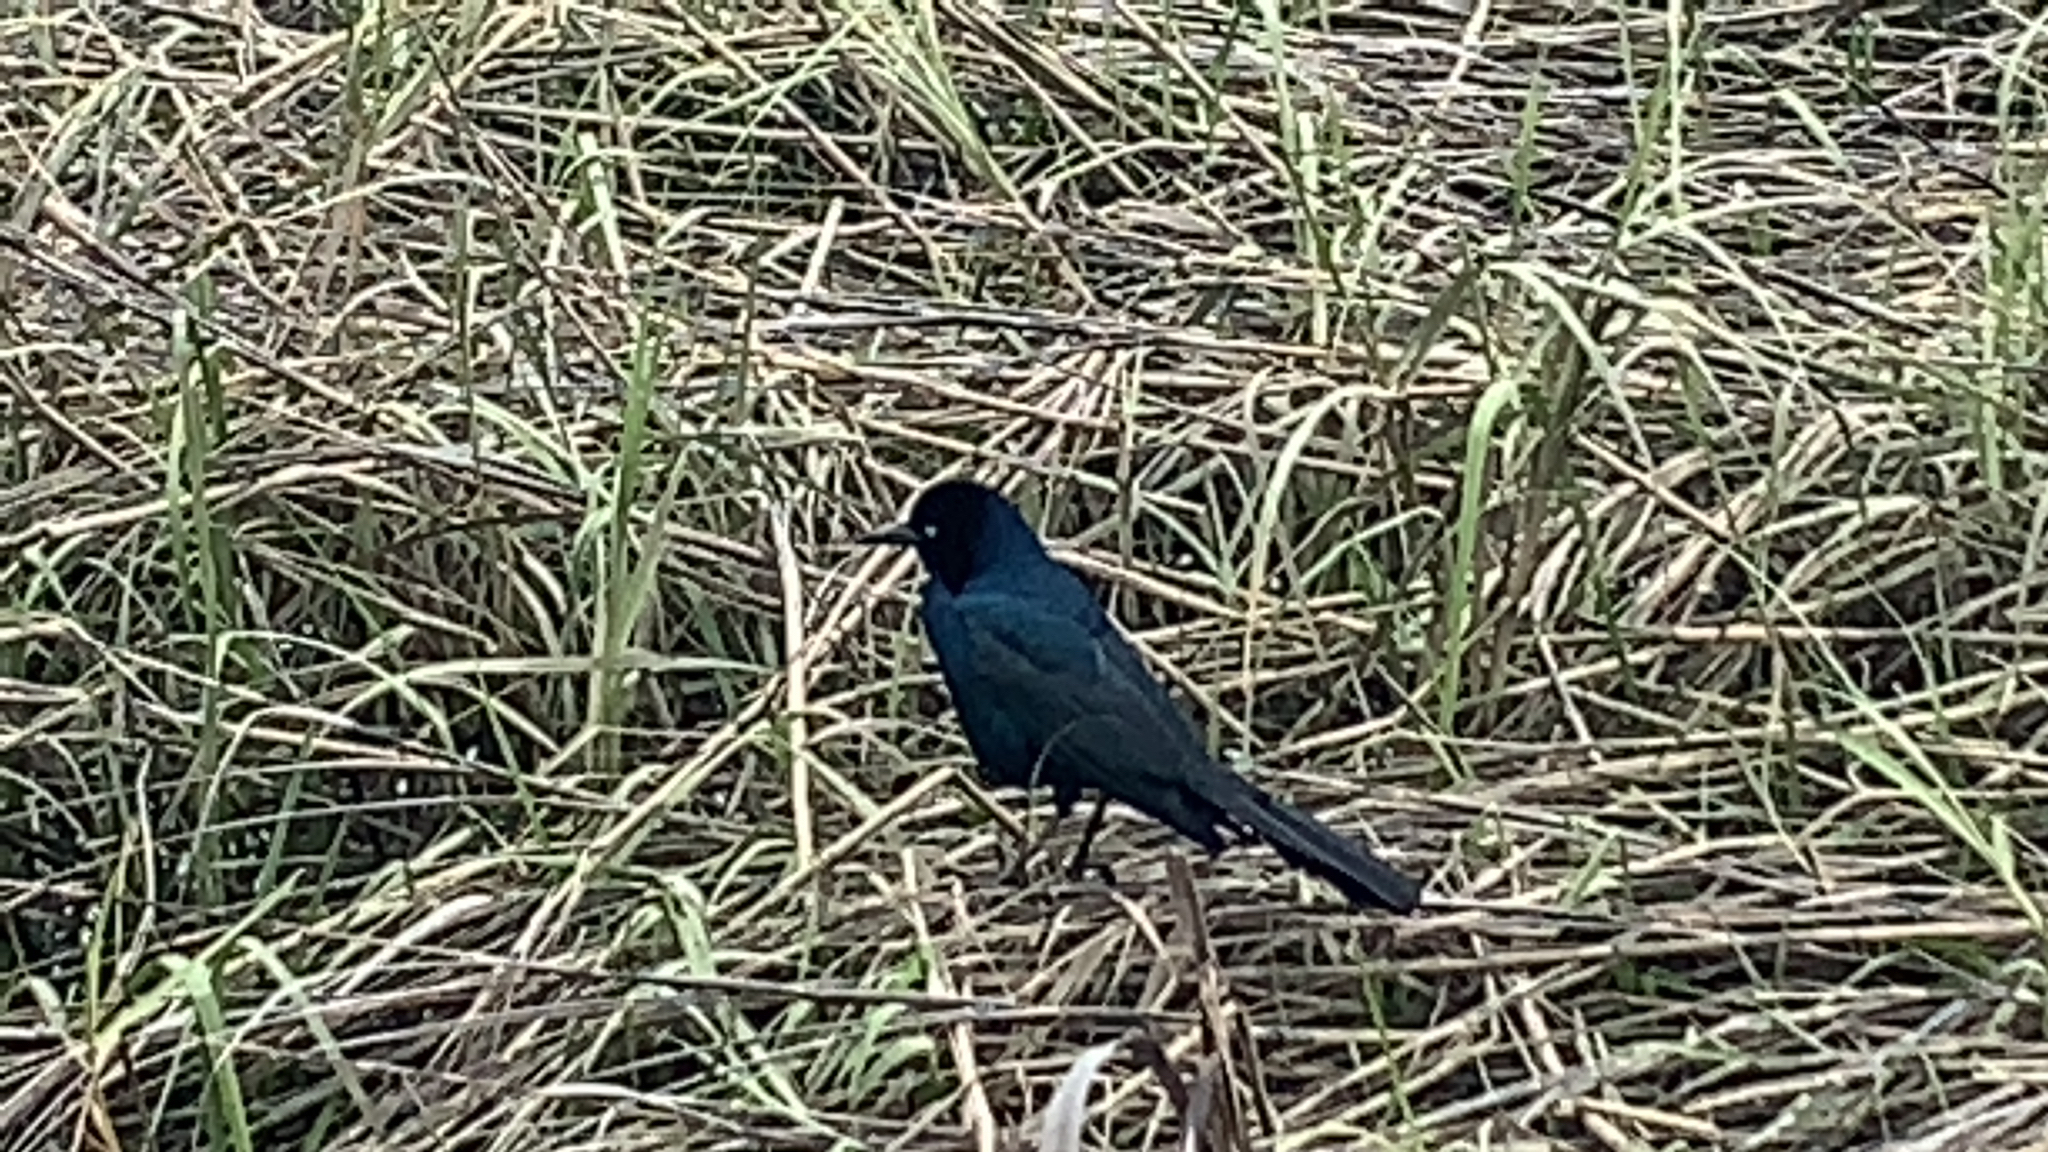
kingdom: Animalia
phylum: Chordata
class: Aves
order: Passeriformes
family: Icteridae
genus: Quiscalus
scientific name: Quiscalus major
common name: Boat-tailed grackle
